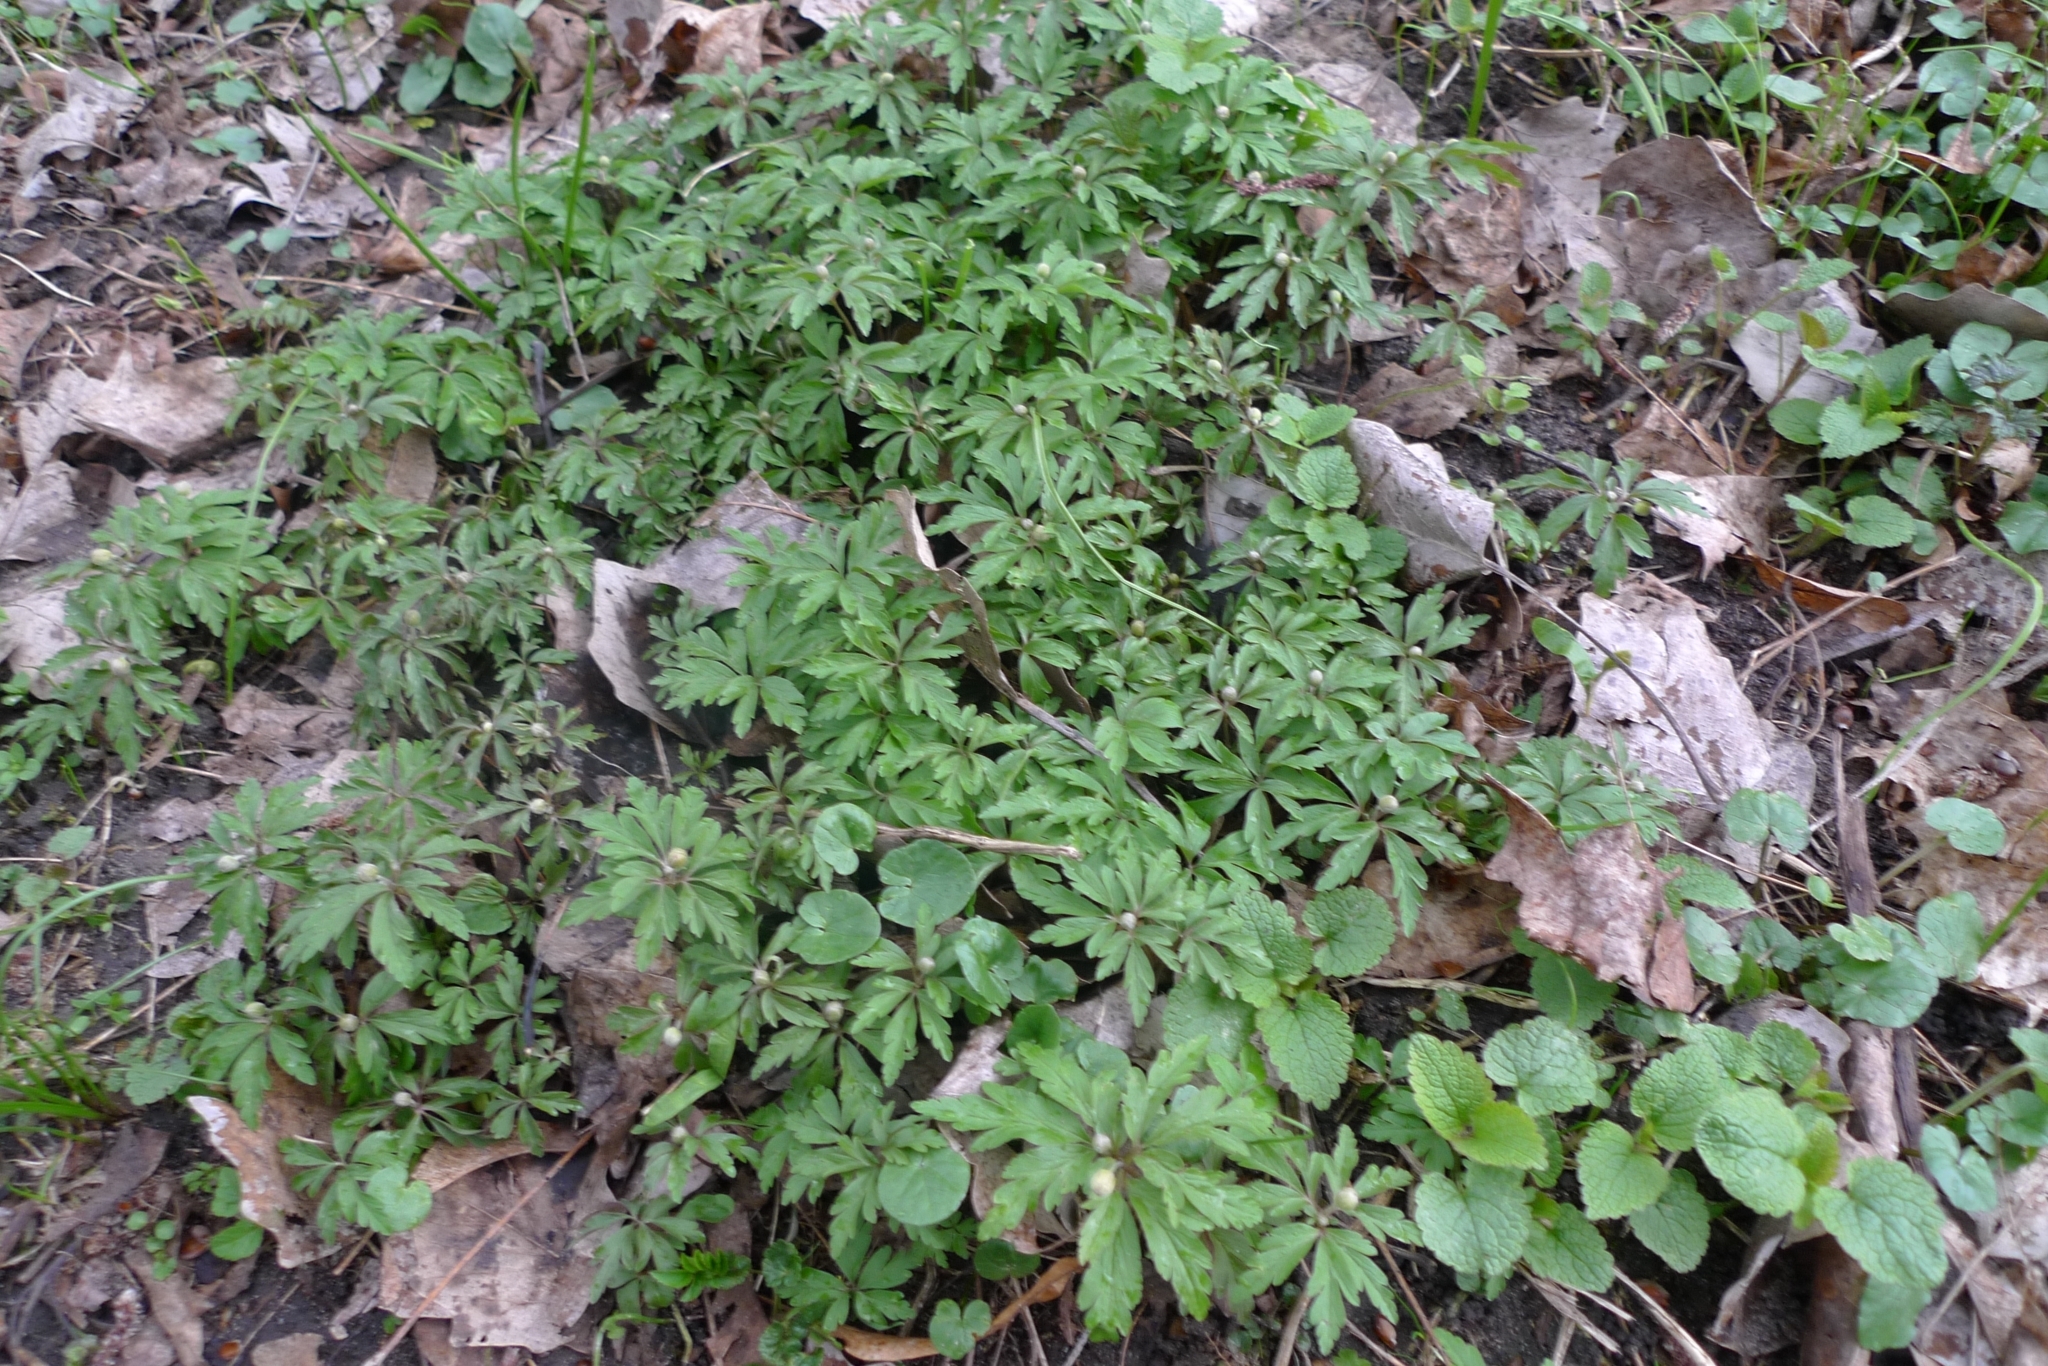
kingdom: Plantae
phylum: Tracheophyta
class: Magnoliopsida
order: Ranunculales
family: Ranunculaceae
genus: Anemone
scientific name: Anemone ranunculoides
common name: Yellow anemone
